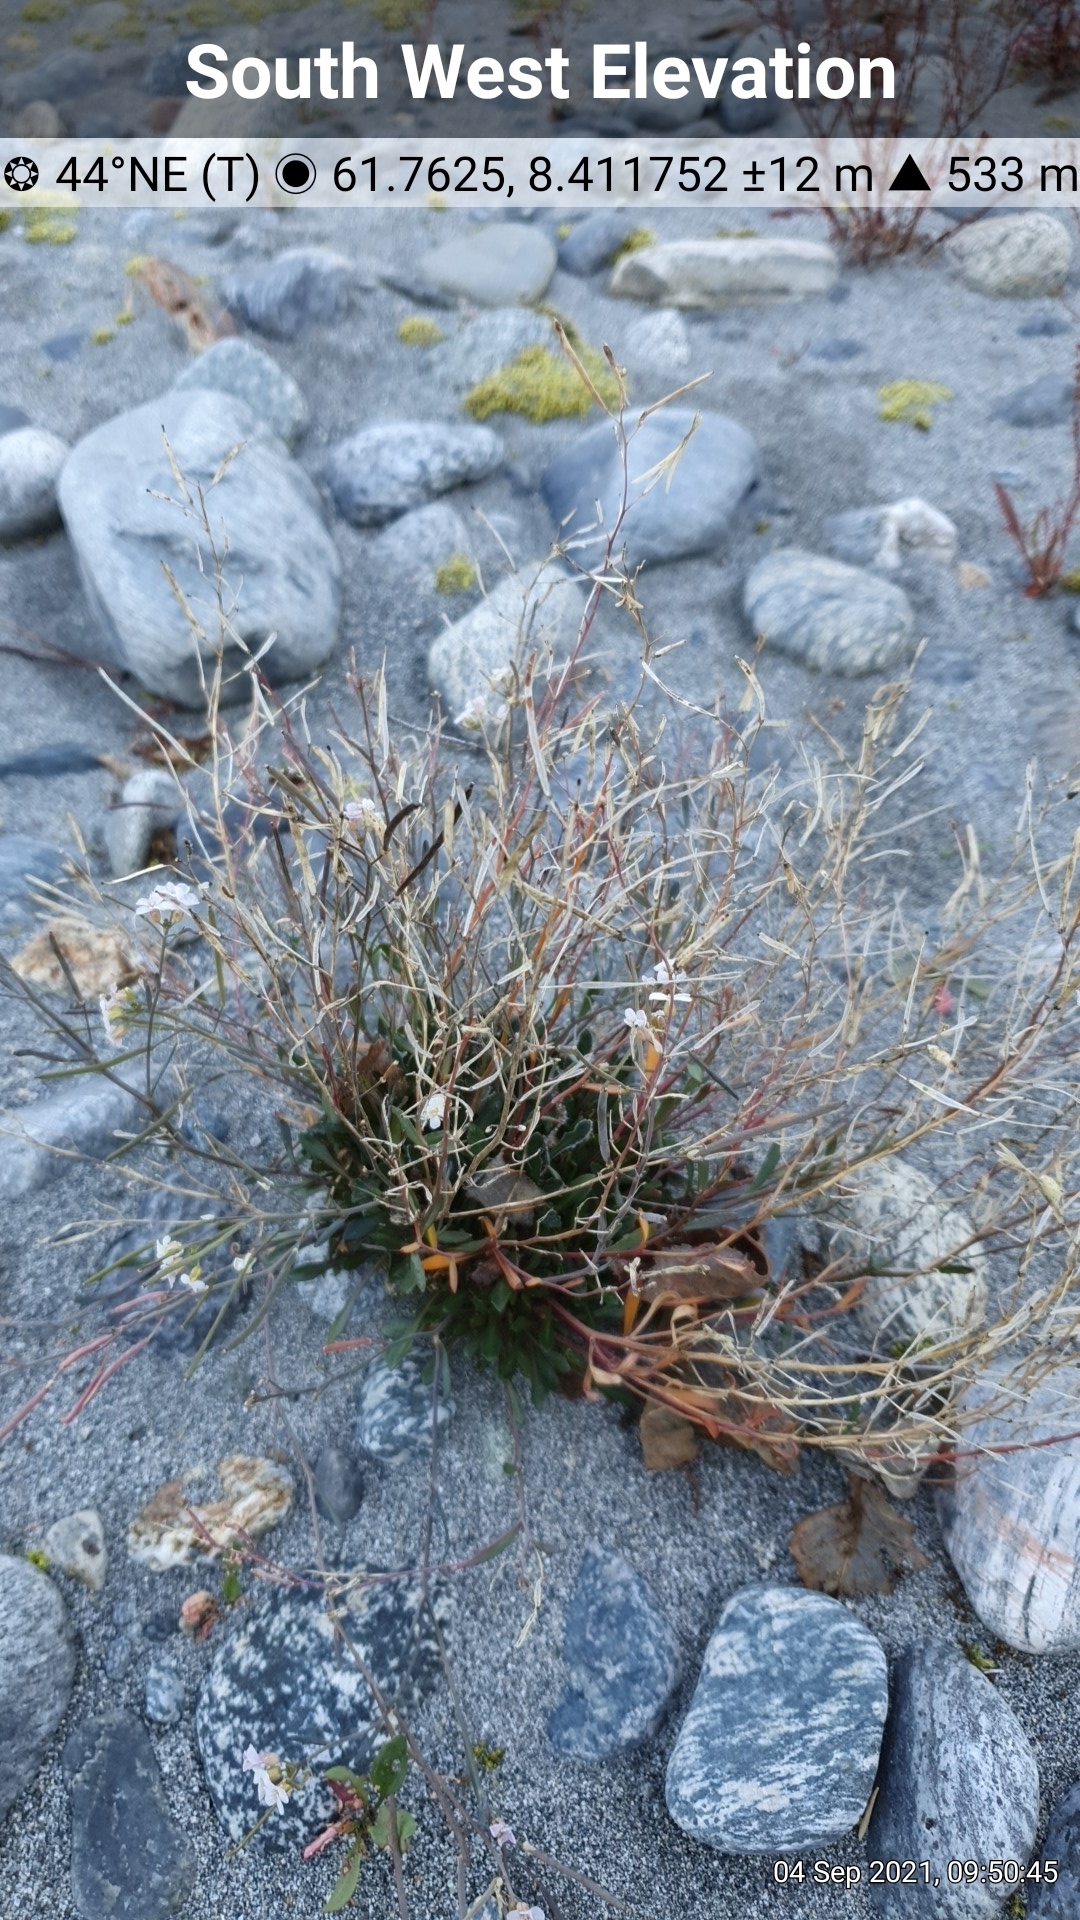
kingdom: Plantae
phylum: Tracheophyta
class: Magnoliopsida
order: Brassicales
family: Brassicaceae
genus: Arabidopsis
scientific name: Arabidopsis lyrata
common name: Lyrate rockcress
